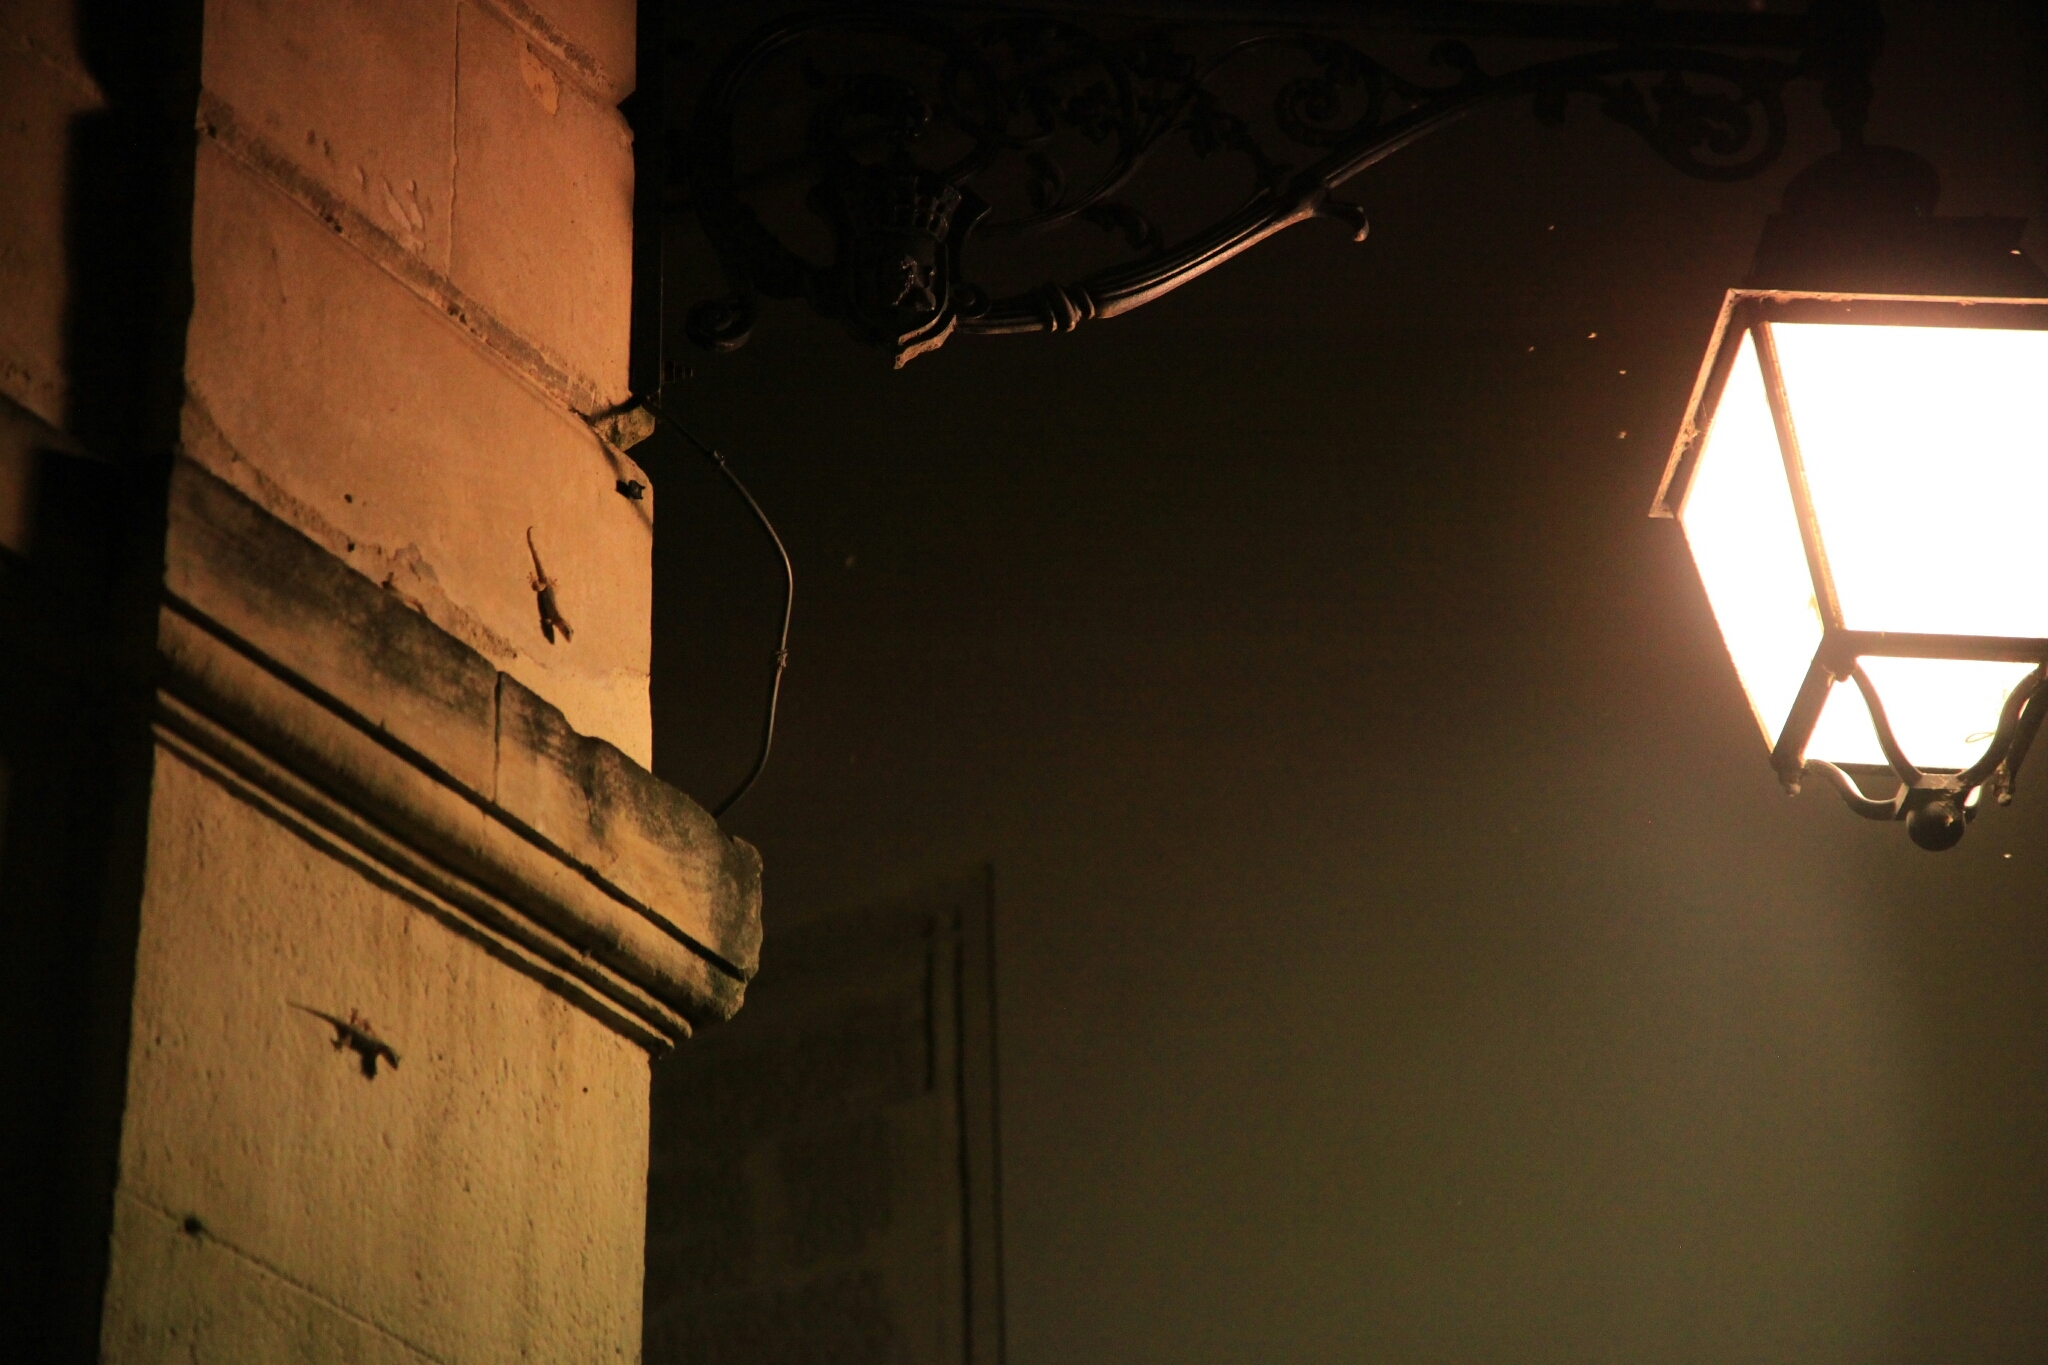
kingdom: Animalia
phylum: Chordata
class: Squamata
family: Phyllodactylidae
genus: Tarentola
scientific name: Tarentola mauritanica
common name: Moorish gecko
